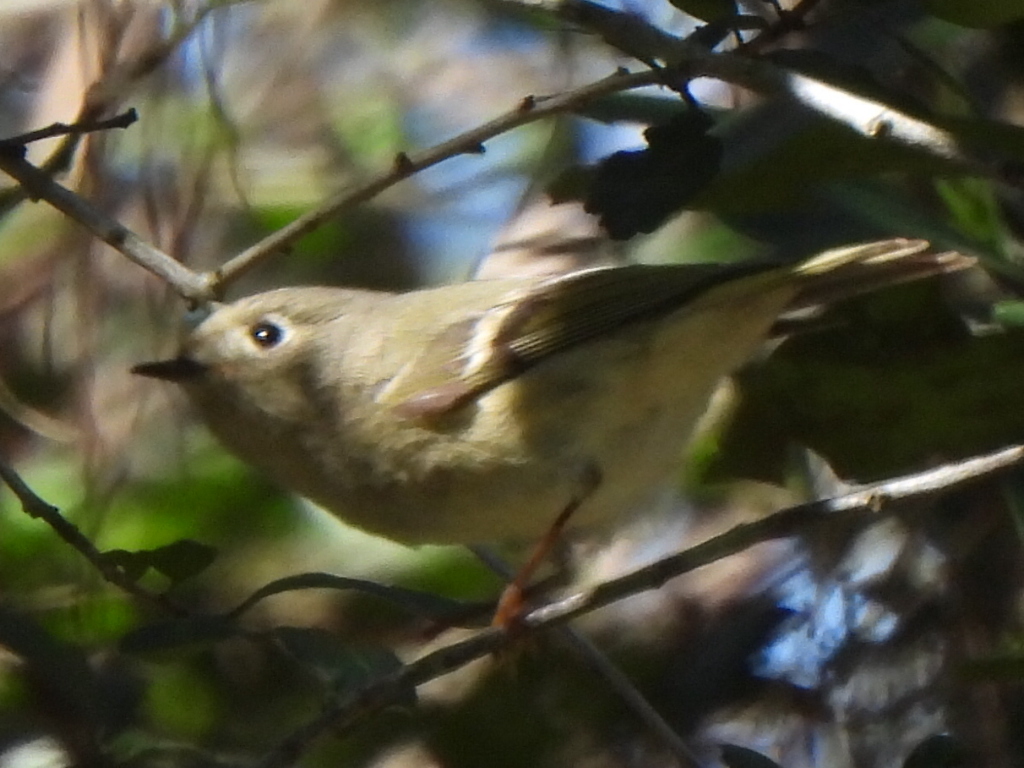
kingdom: Animalia
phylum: Chordata
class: Aves
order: Passeriformes
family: Regulidae
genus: Regulus
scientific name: Regulus calendula
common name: Ruby-crowned kinglet
